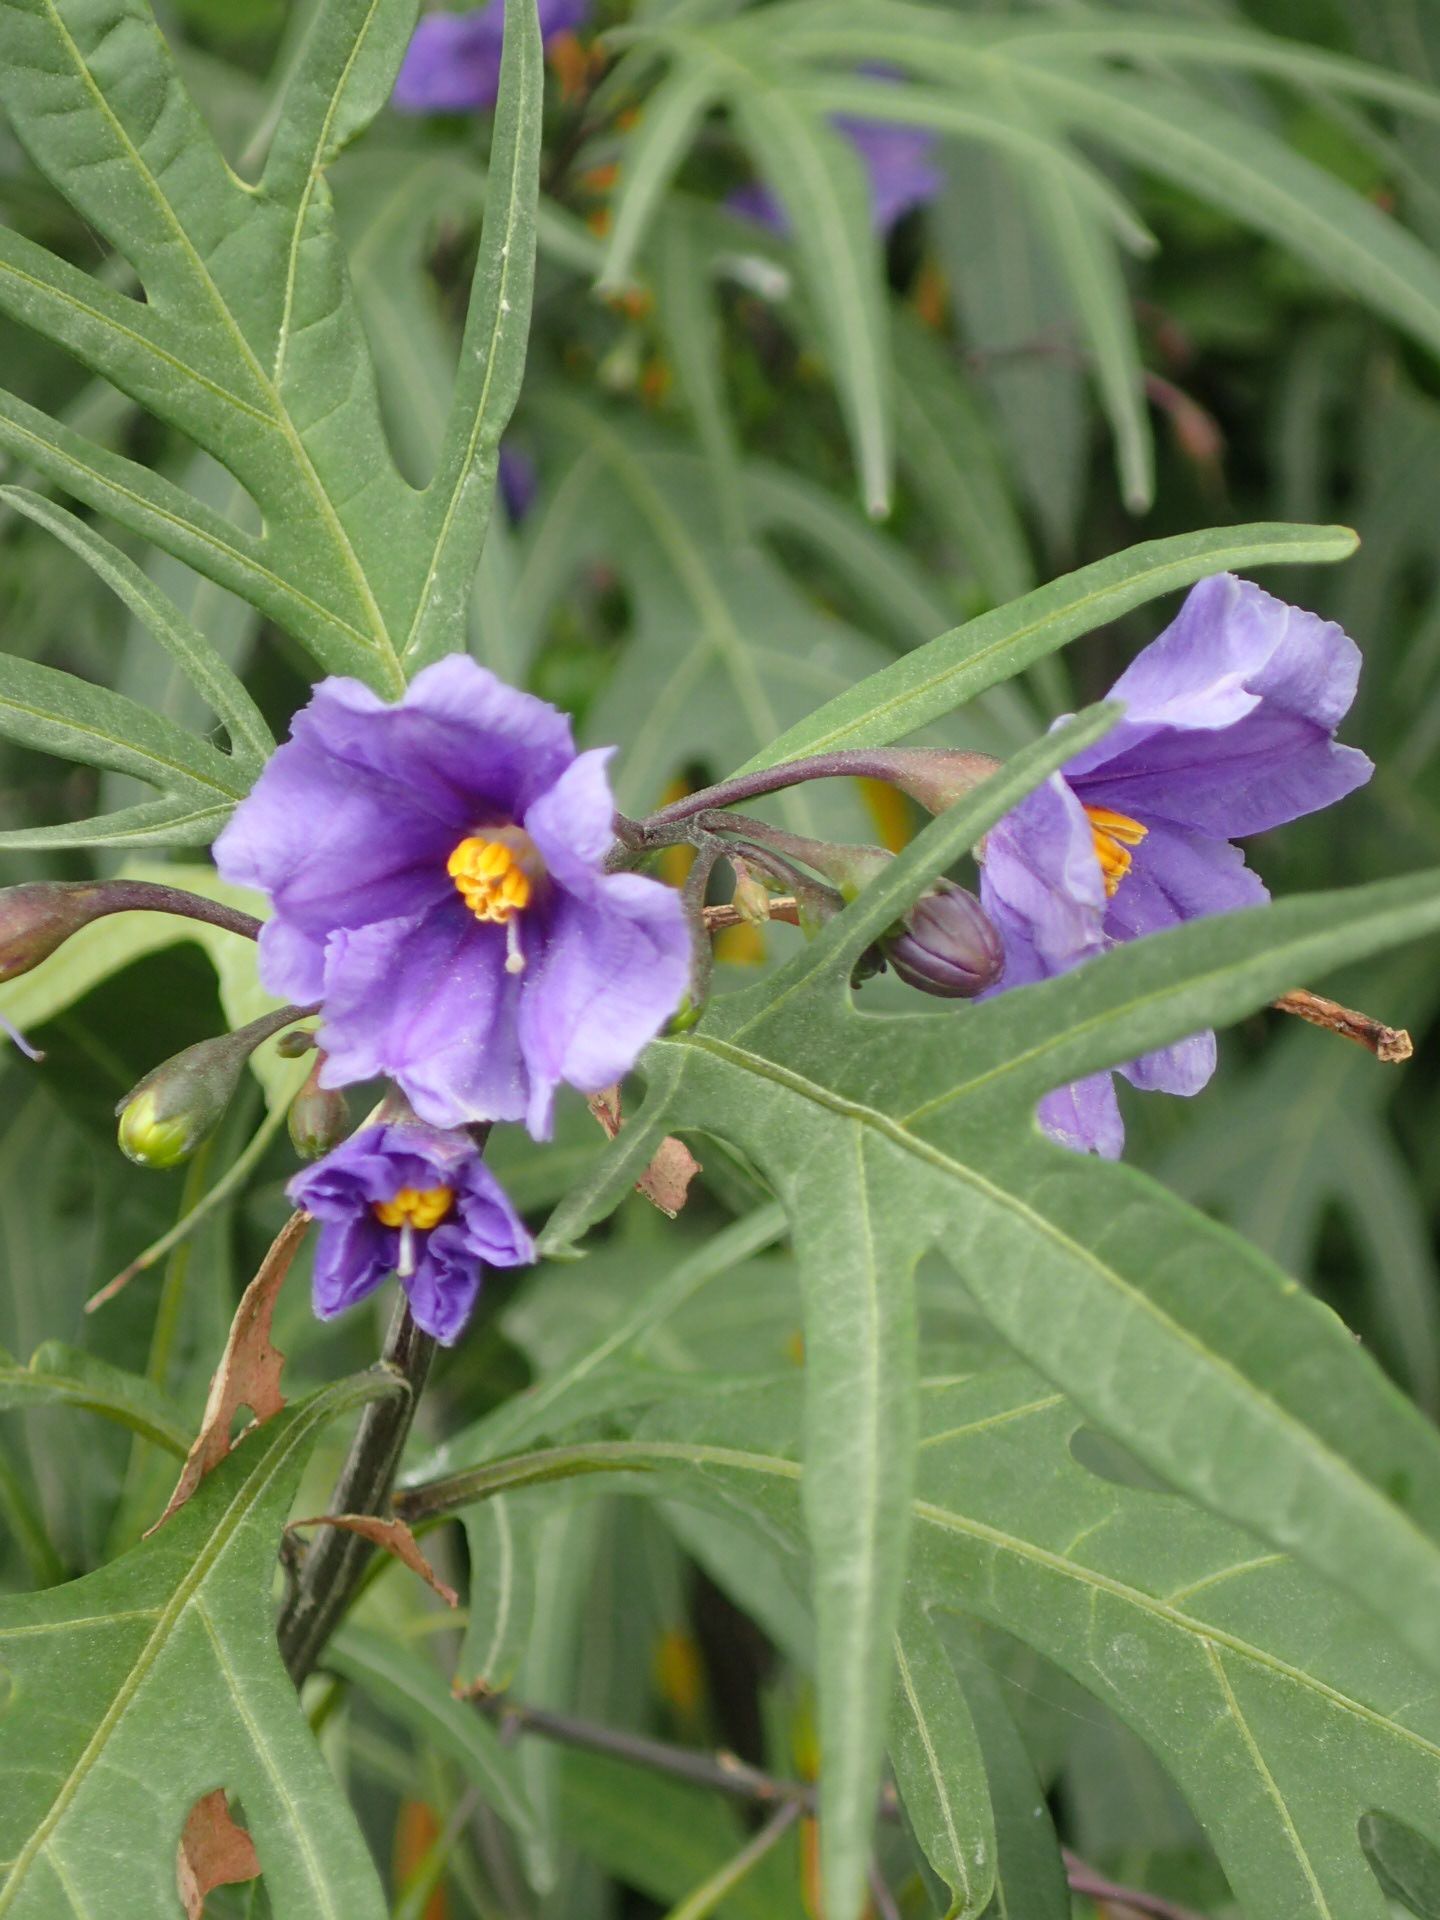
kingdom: Plantae
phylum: Tracheophyta
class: Magnoliopsida
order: Solanales
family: Solanaceae
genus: Solanum
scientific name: Solanum laciniatum
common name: Kangaroo-apple
